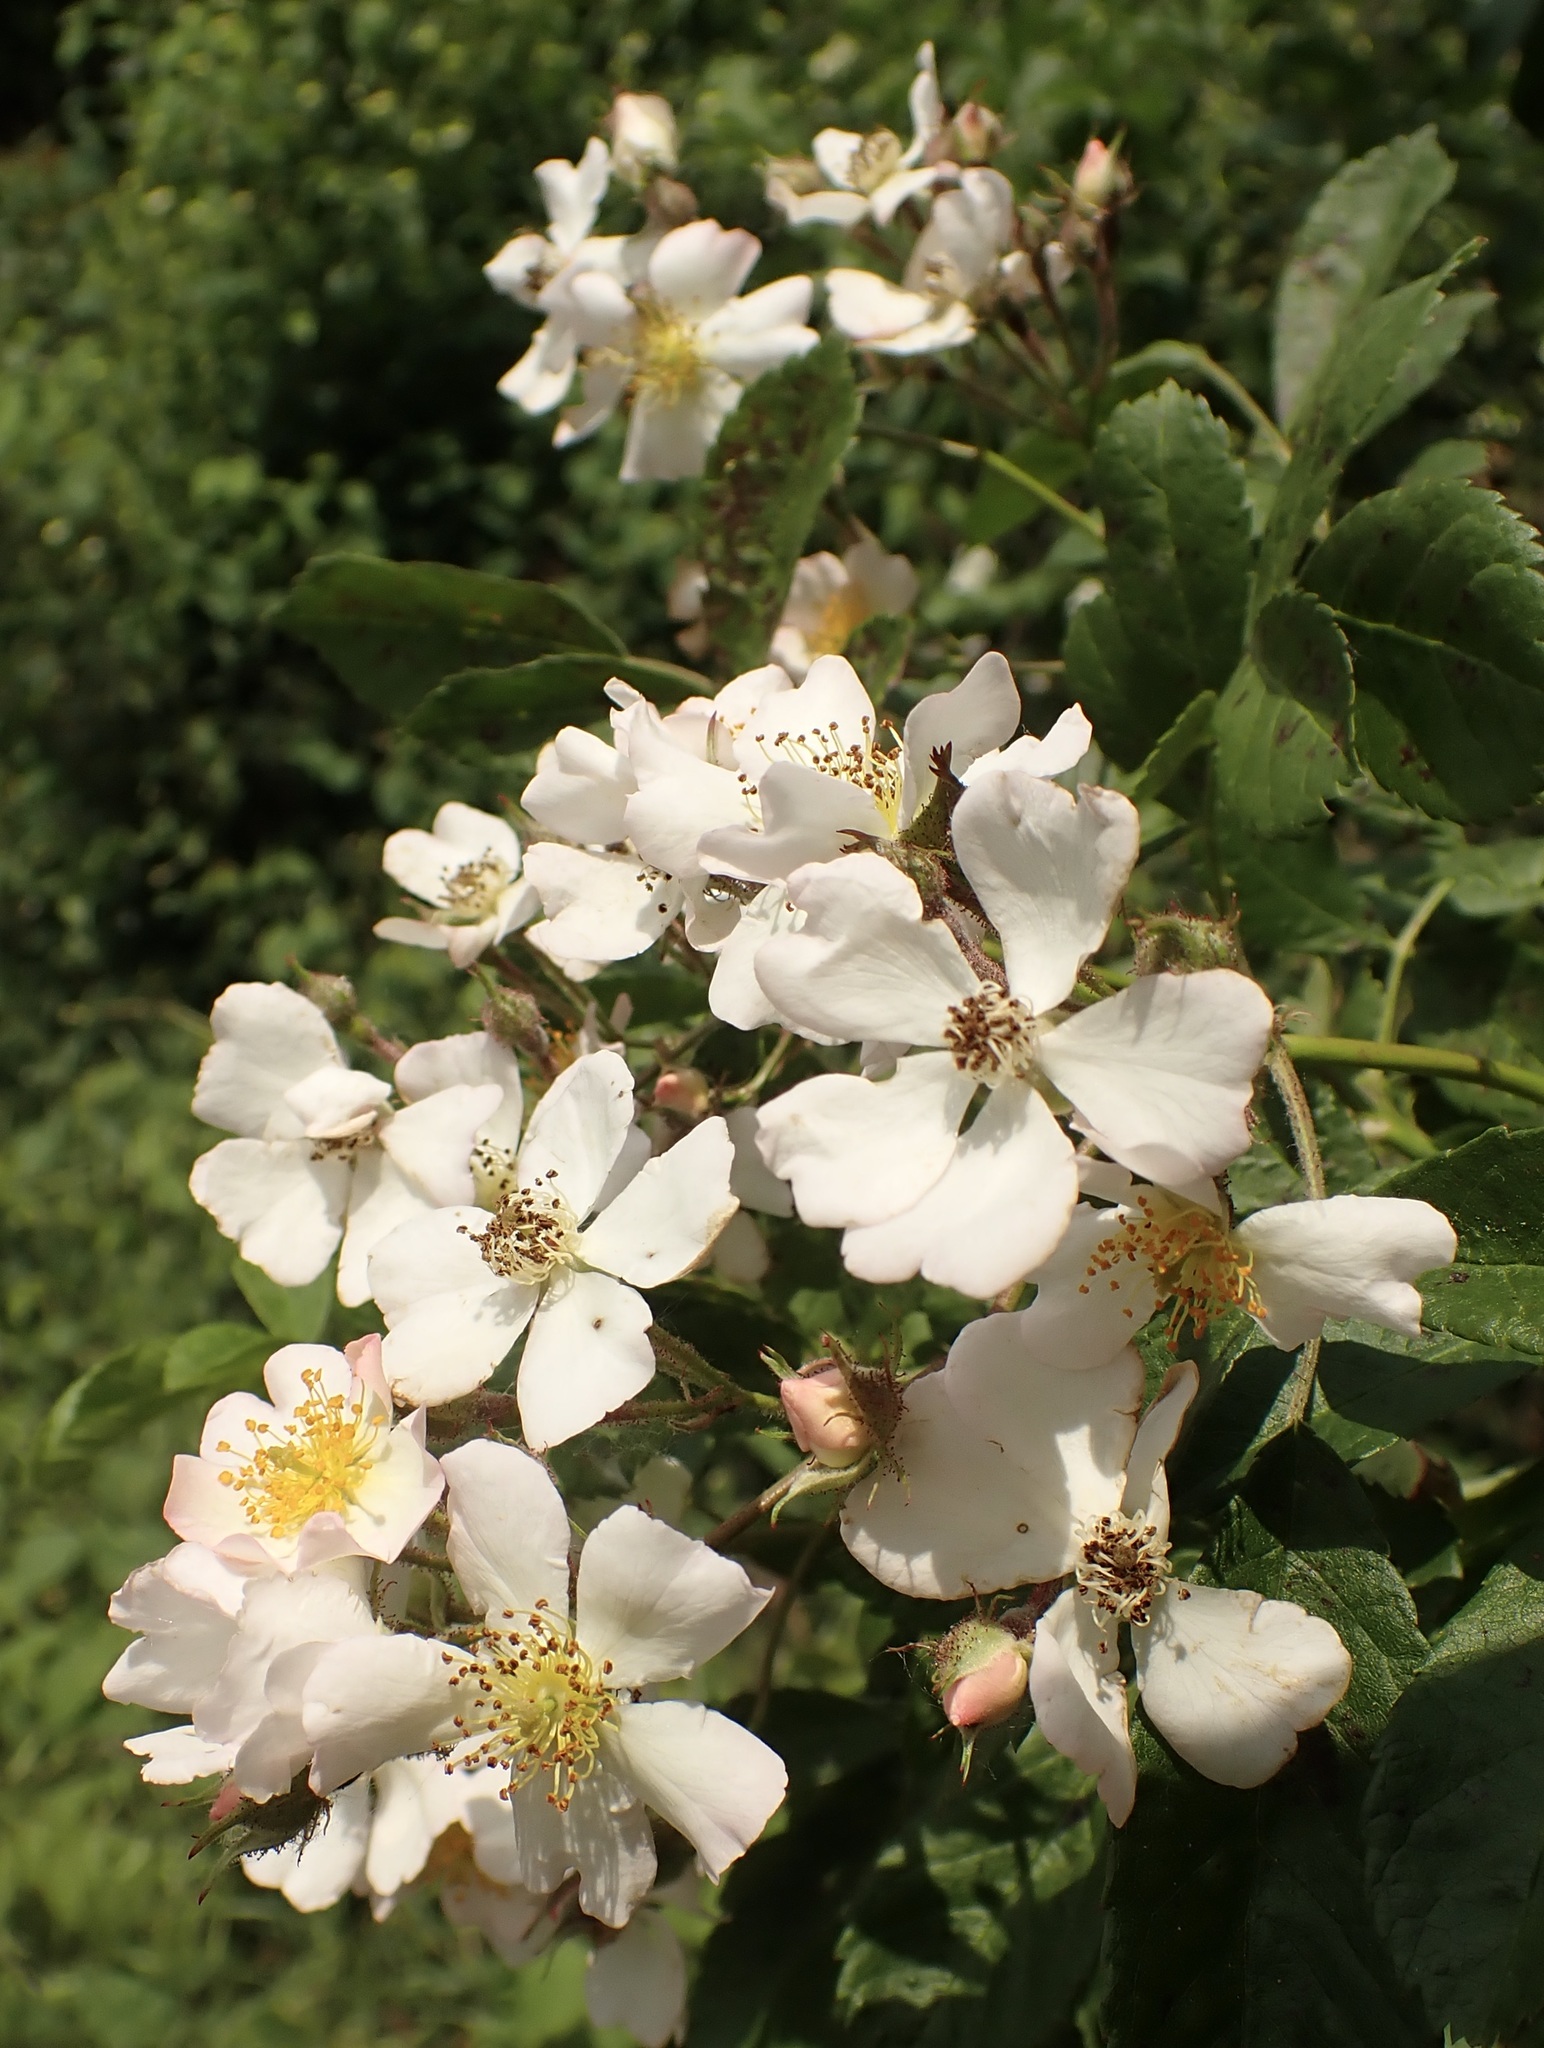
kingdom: Plantae
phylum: Tracheophyta
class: Magnoliopsida
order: Rosales
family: Rosaceae
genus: Rosa
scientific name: Rosa multiflora
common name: Multiflora rose
